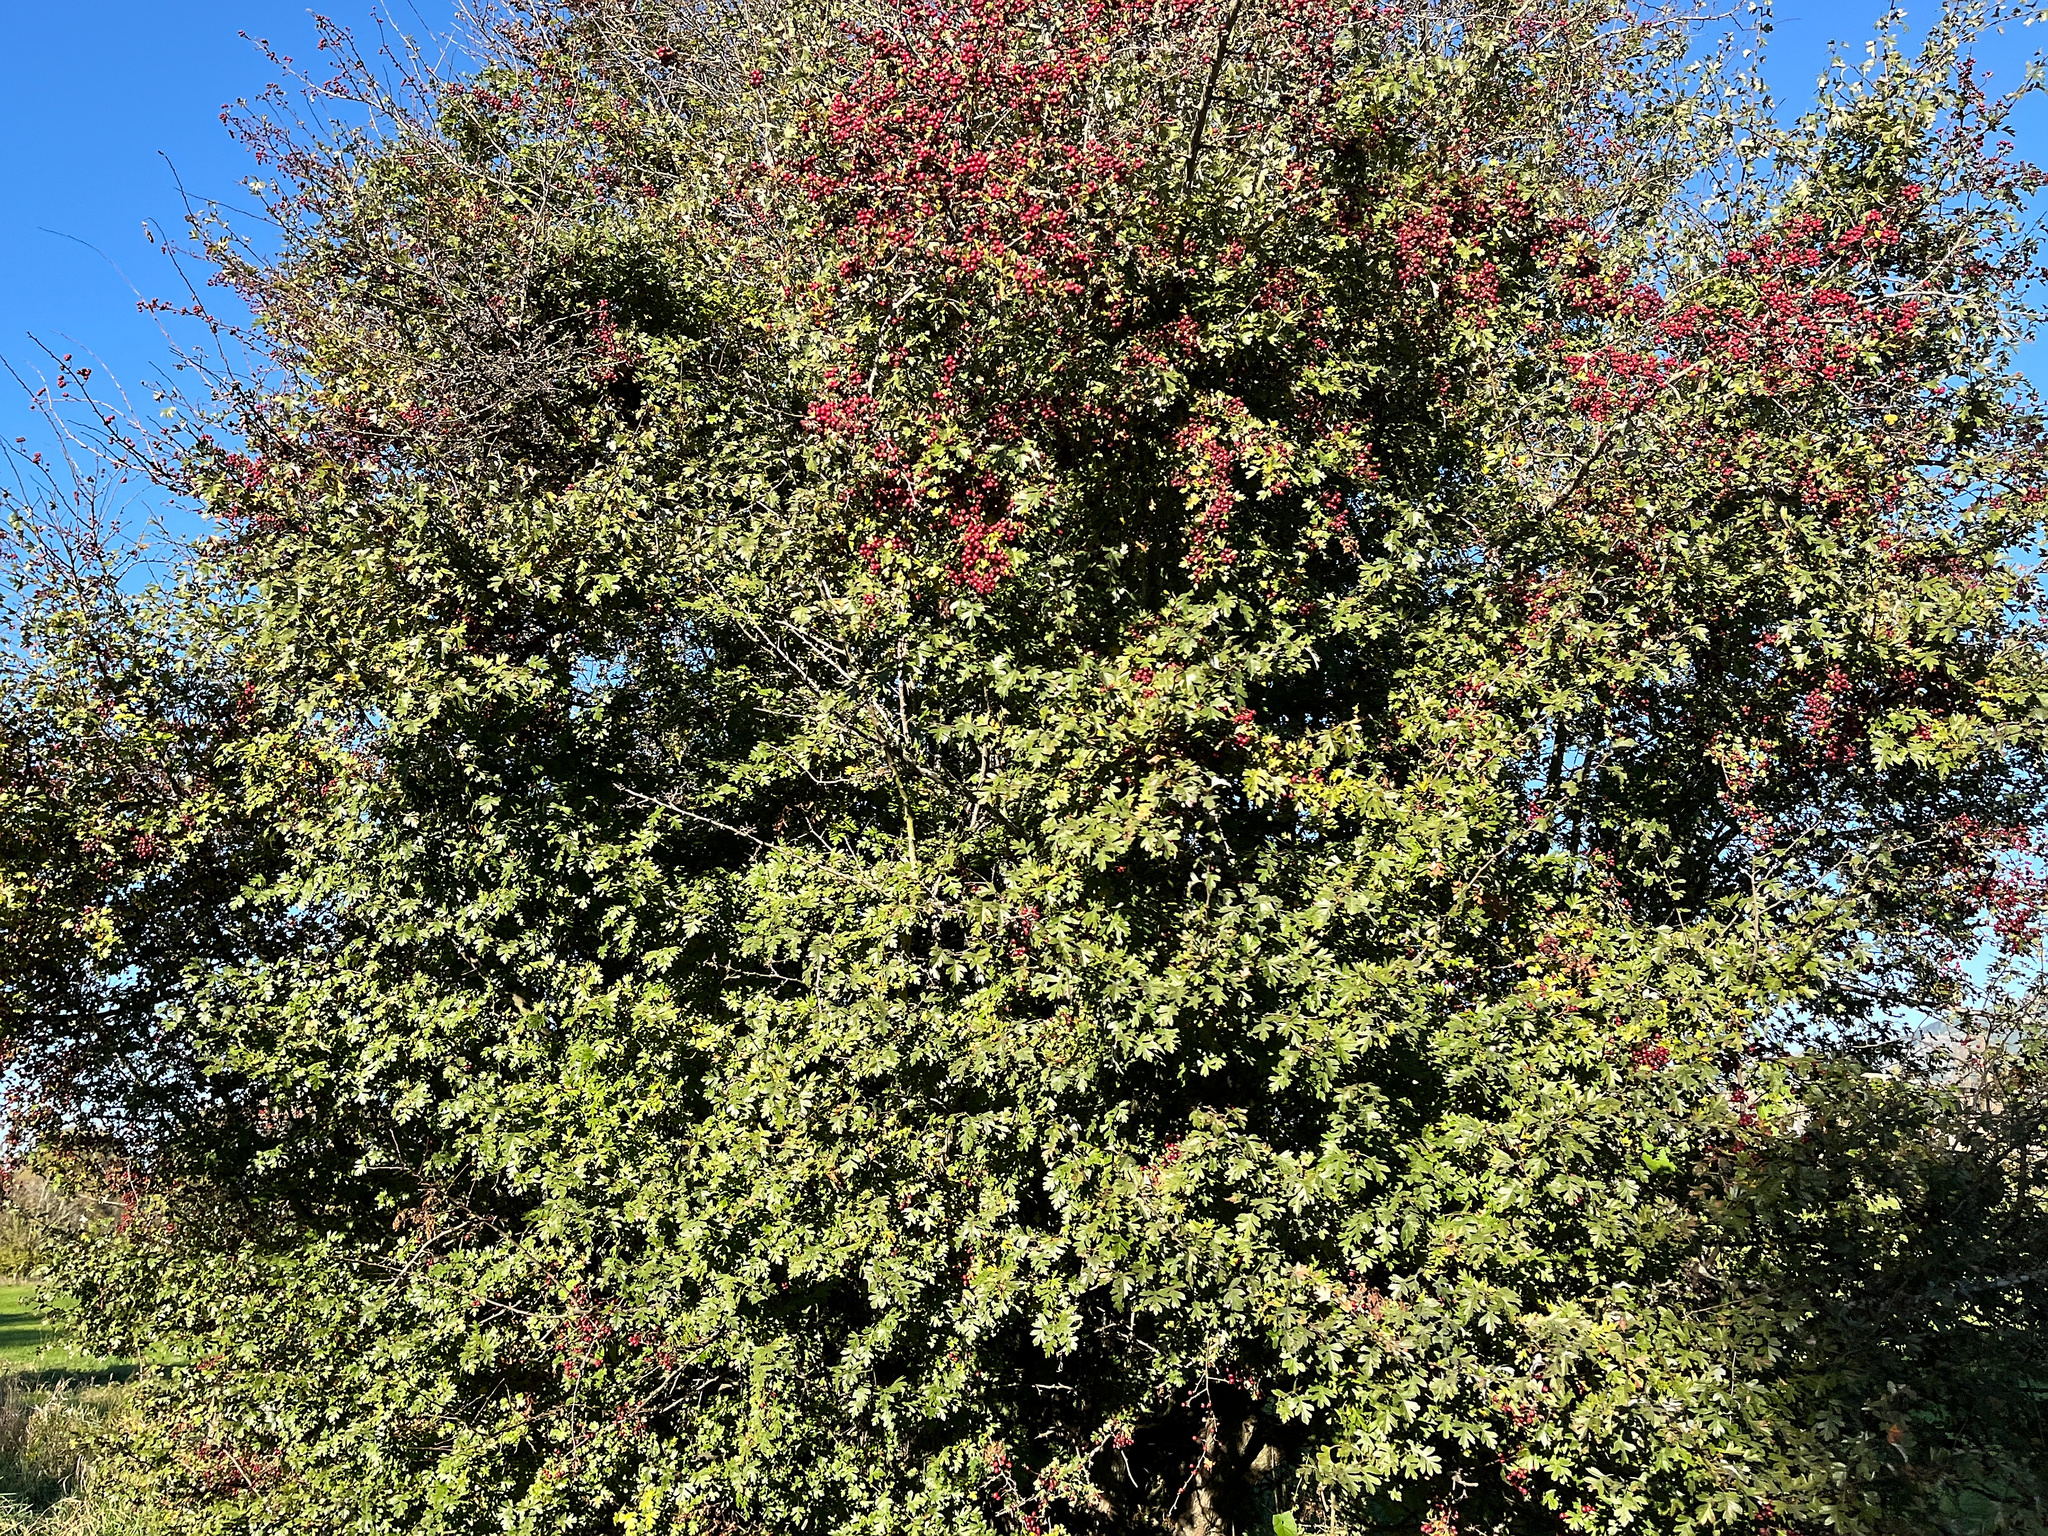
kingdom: Plantae
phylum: Tracheophyta
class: Magnoliopsida
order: Rosales
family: Rosaceae
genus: Crataegus
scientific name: Crataegus monogyna
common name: Hawthorn
